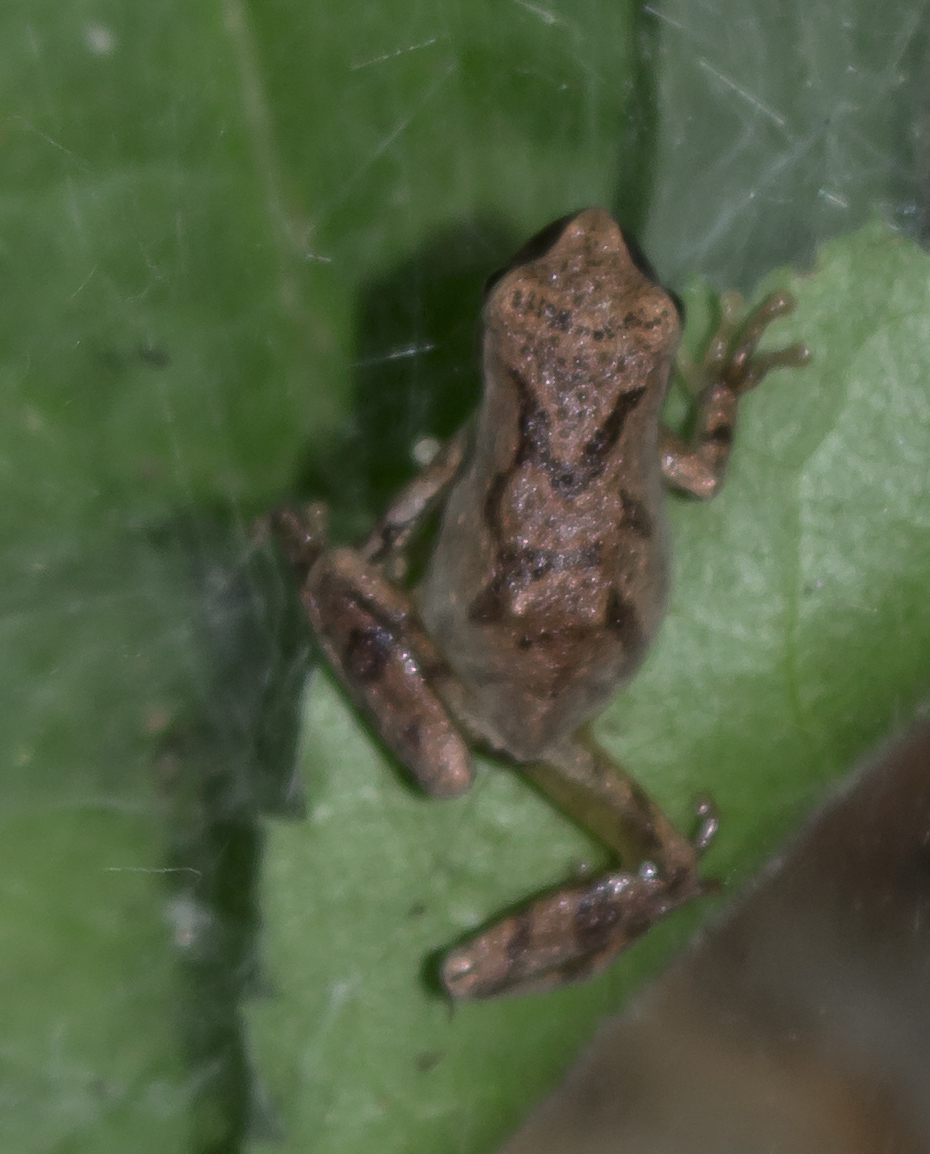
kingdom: Animalia
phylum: Chordata
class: Amphibia
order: Anura
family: Hylidae
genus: Pseudacris
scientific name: Pseudacris crucifer
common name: Spring peeper
